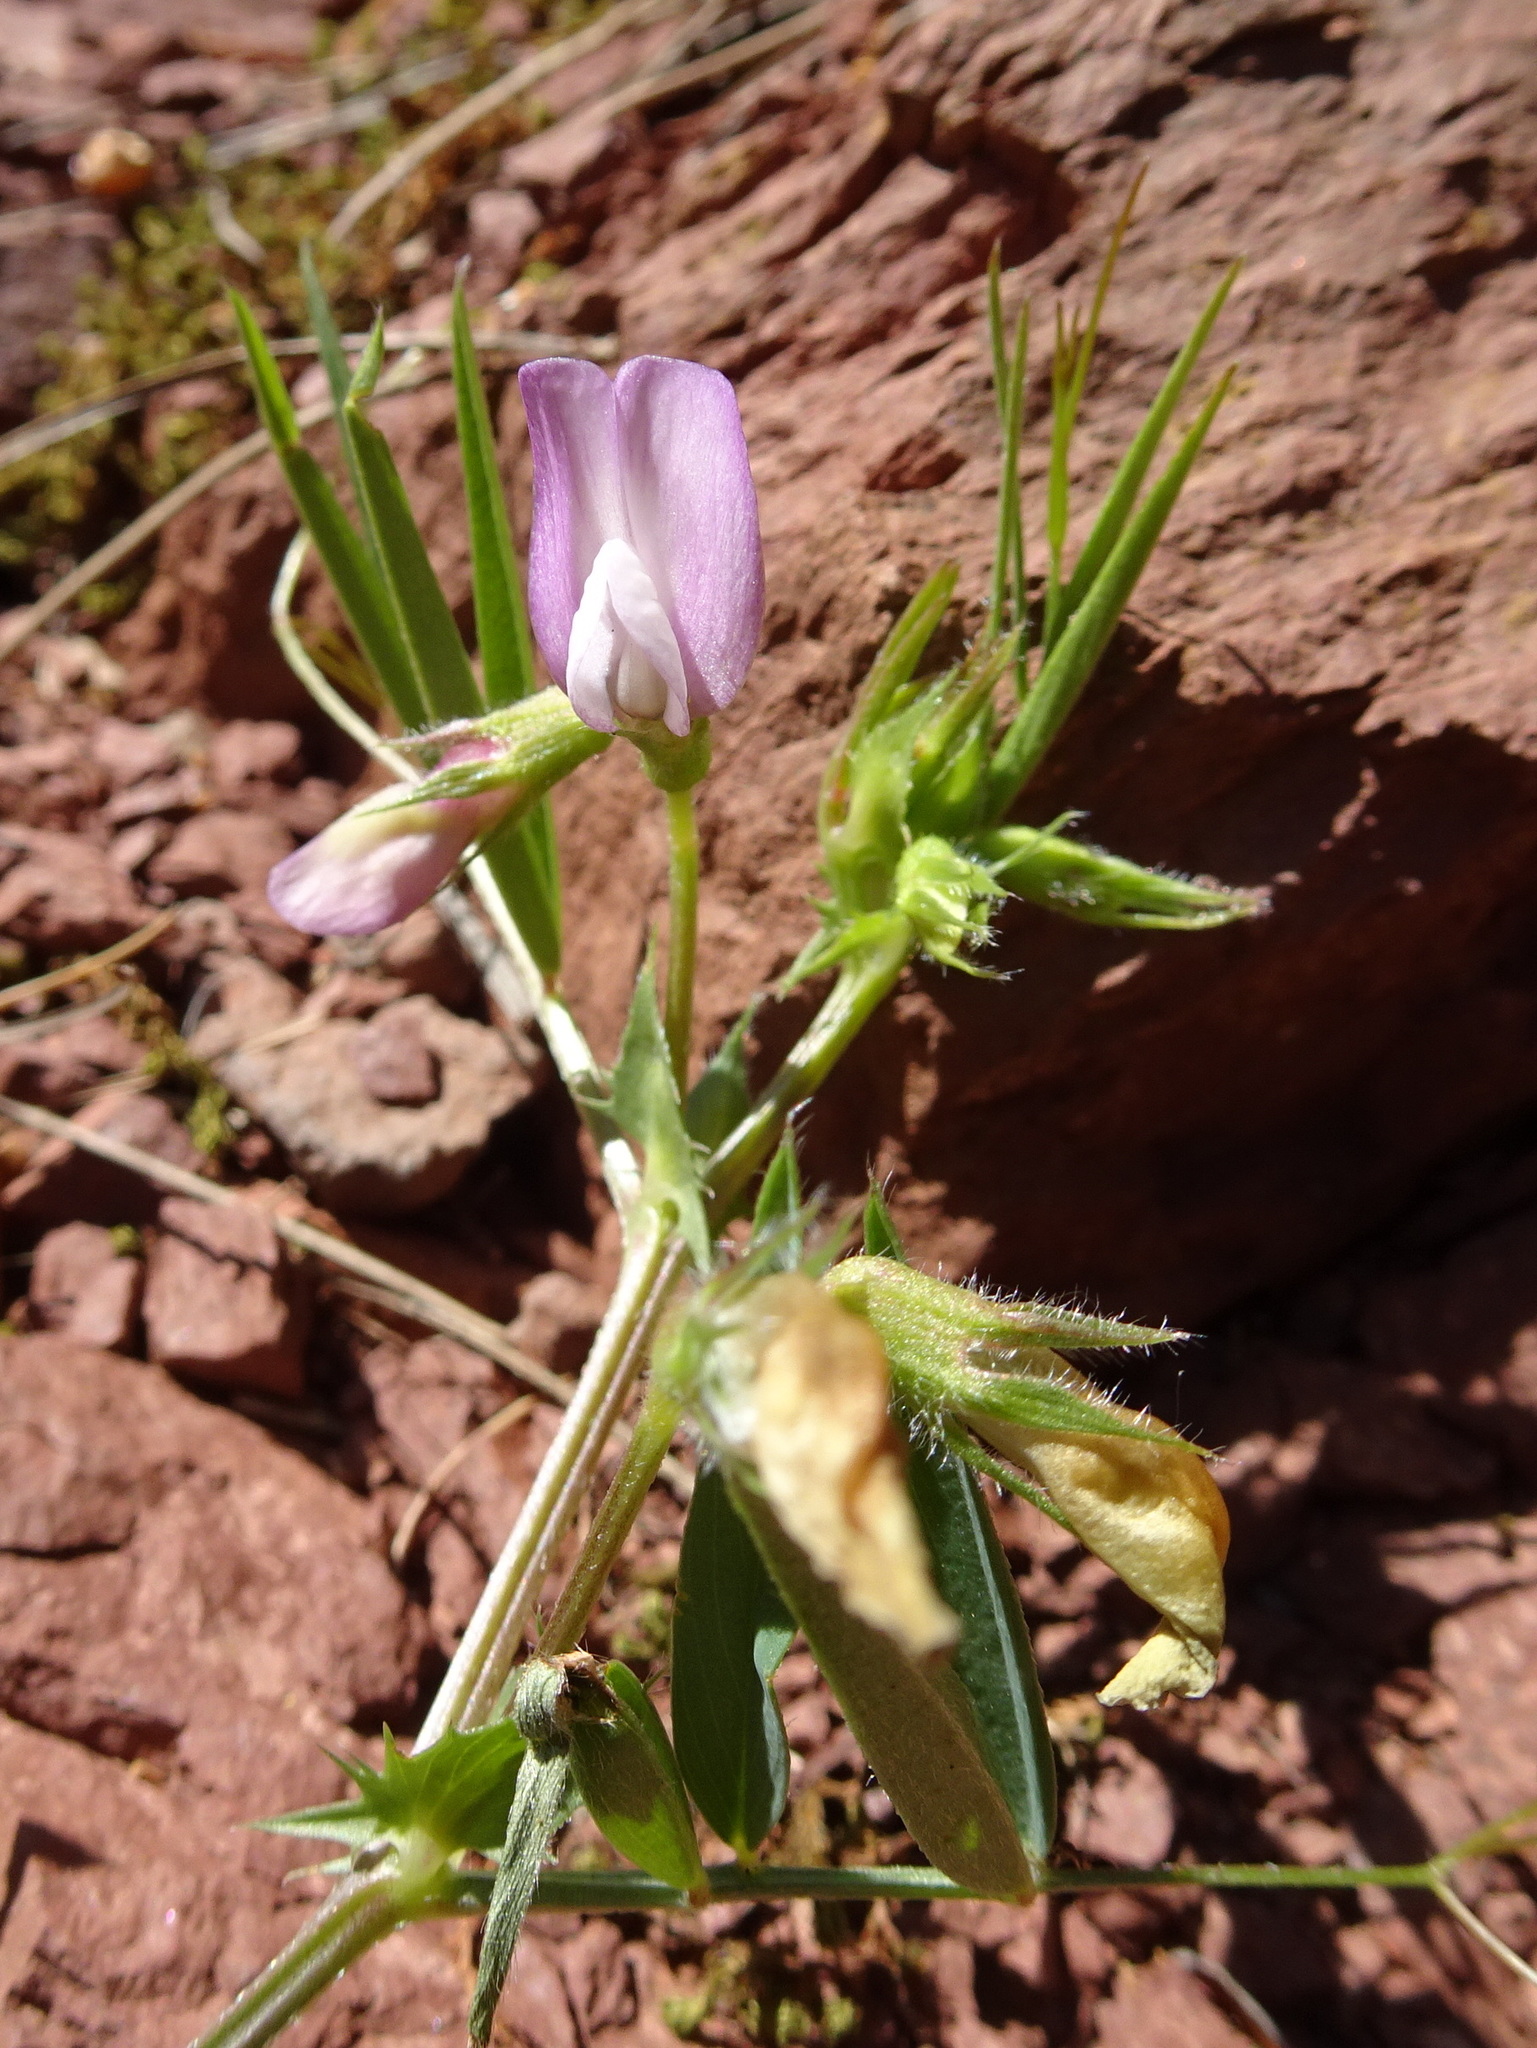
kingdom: Plantae
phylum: Tracheophyta
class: Magnoliopsida
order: Fabales
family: Fabaceae
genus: Vicia
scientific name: Vicia bithynica
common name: Bithynian vetch
